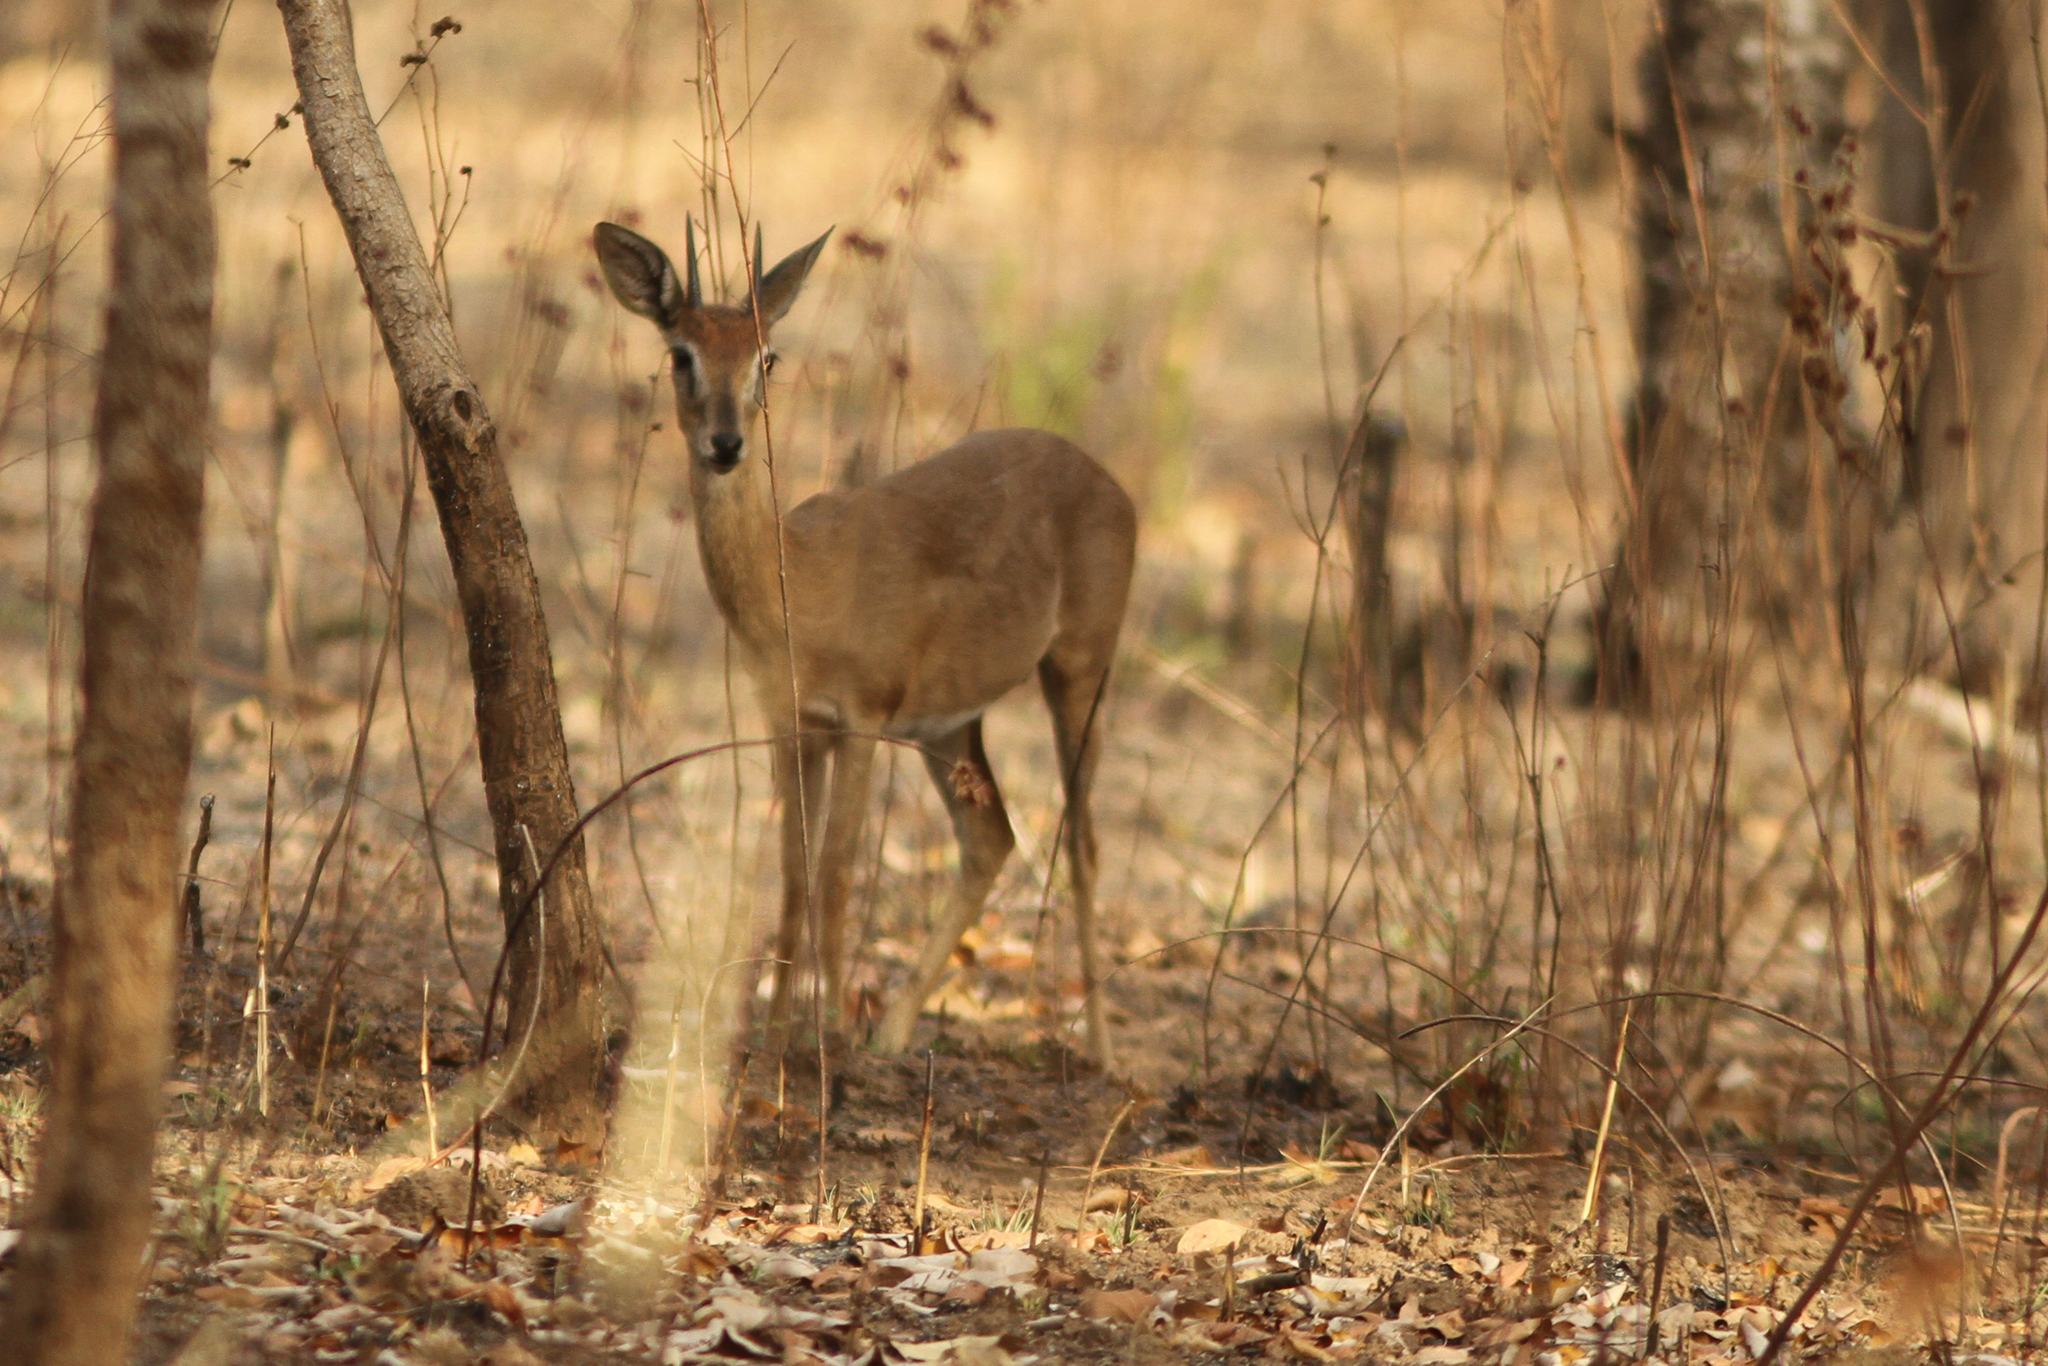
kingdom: Animalia
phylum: Chordata
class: Mammalia
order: Artiodactyla
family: Bovidae
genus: Ourebia
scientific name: Ourebia ourebi
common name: Oribi
